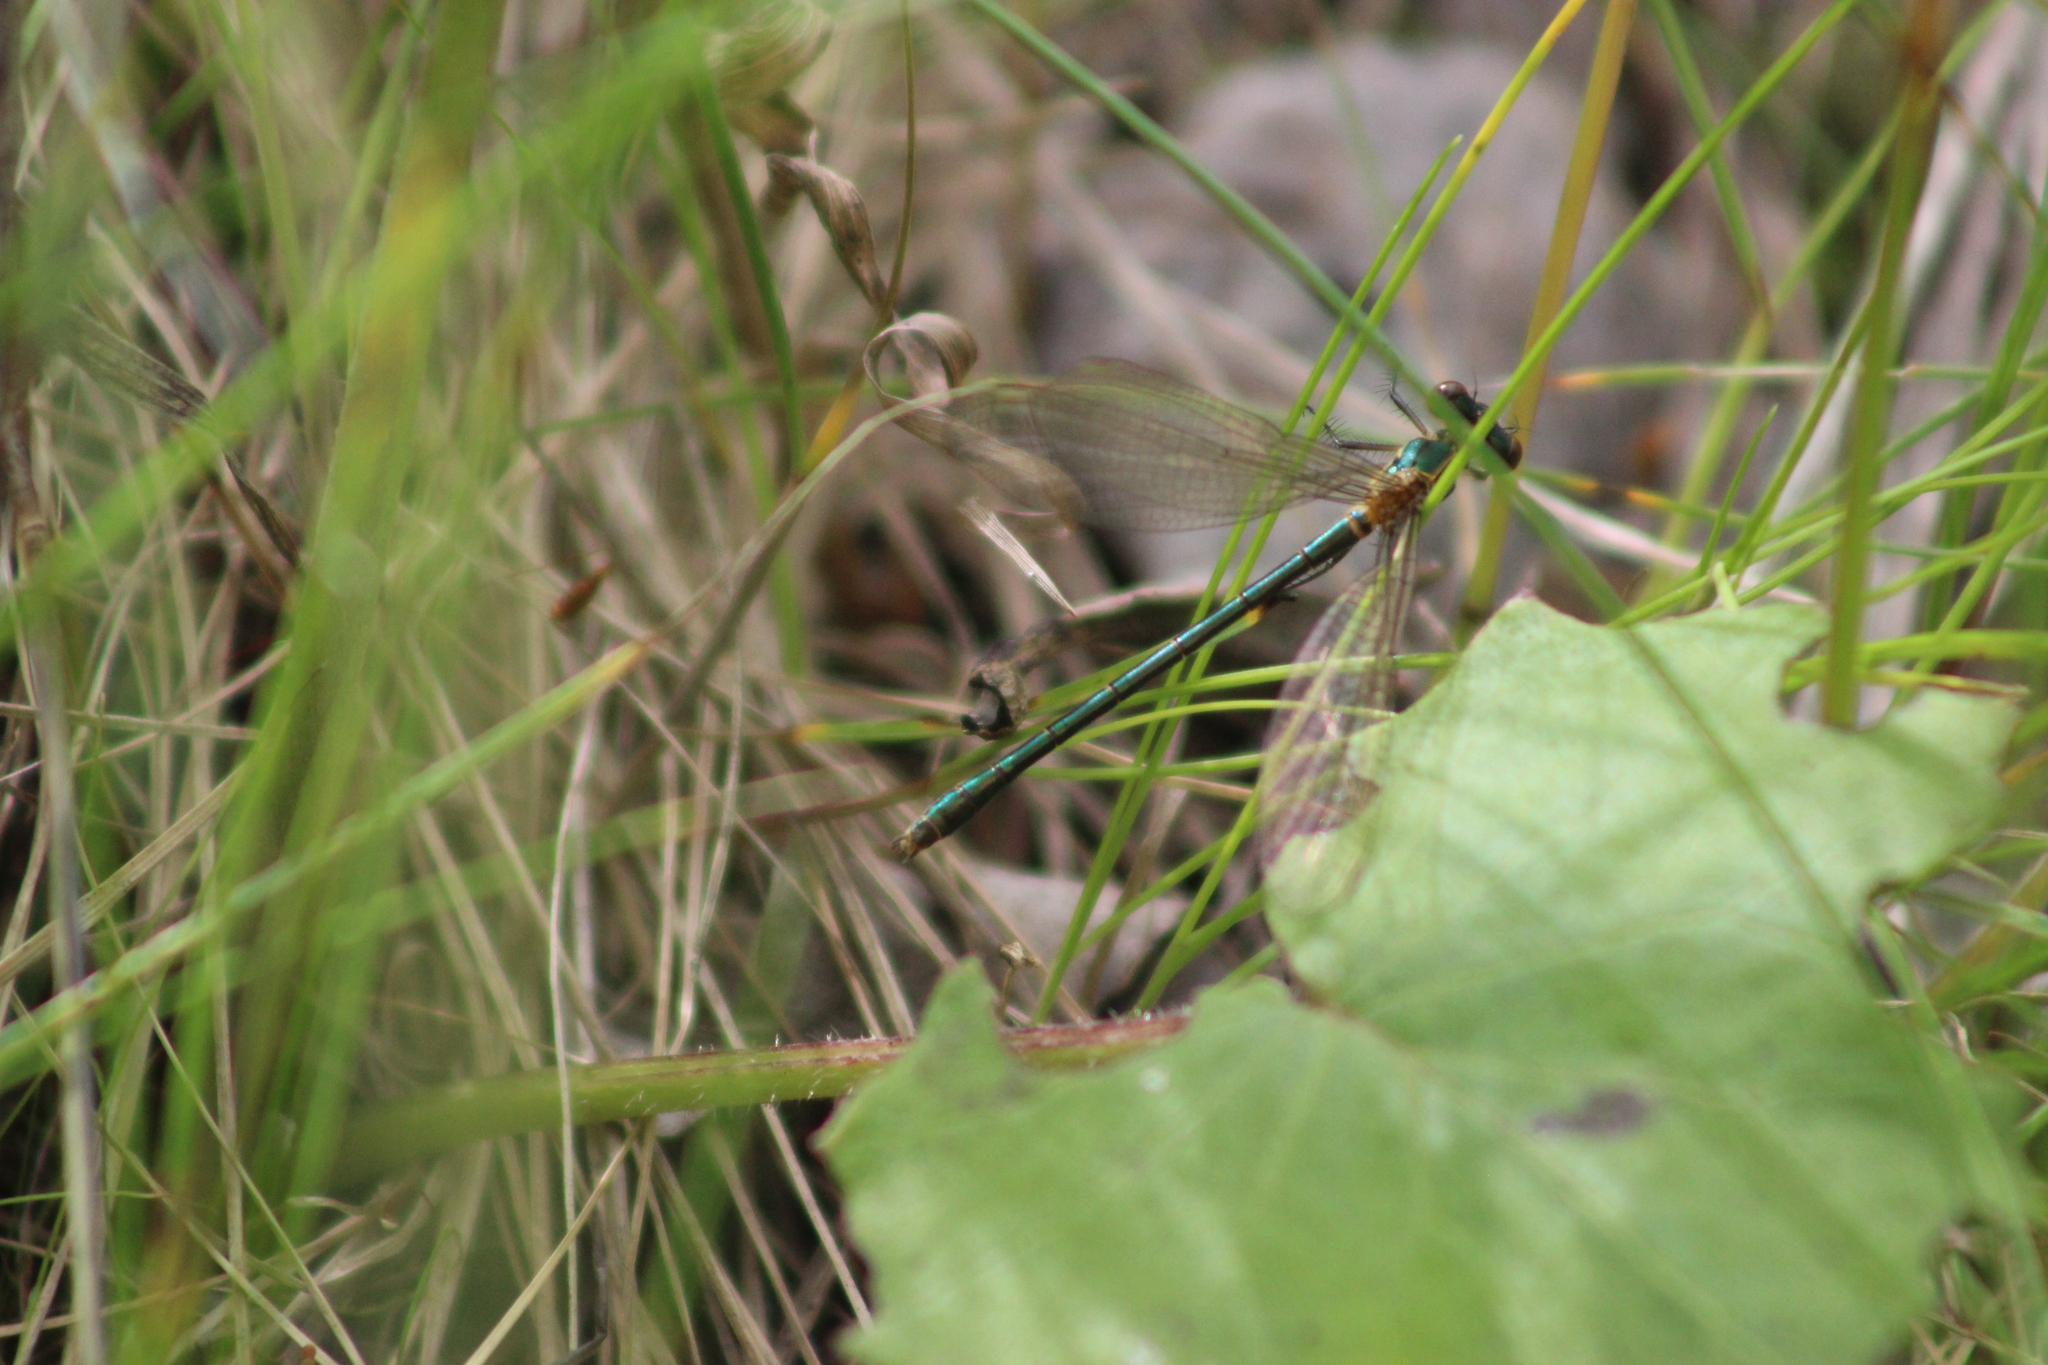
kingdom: Animalia
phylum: Arthropoda
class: Insecta
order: Odonata
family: Lestidae
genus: Lestes
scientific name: Lestes dryas
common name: Scarce emerald damselfly
